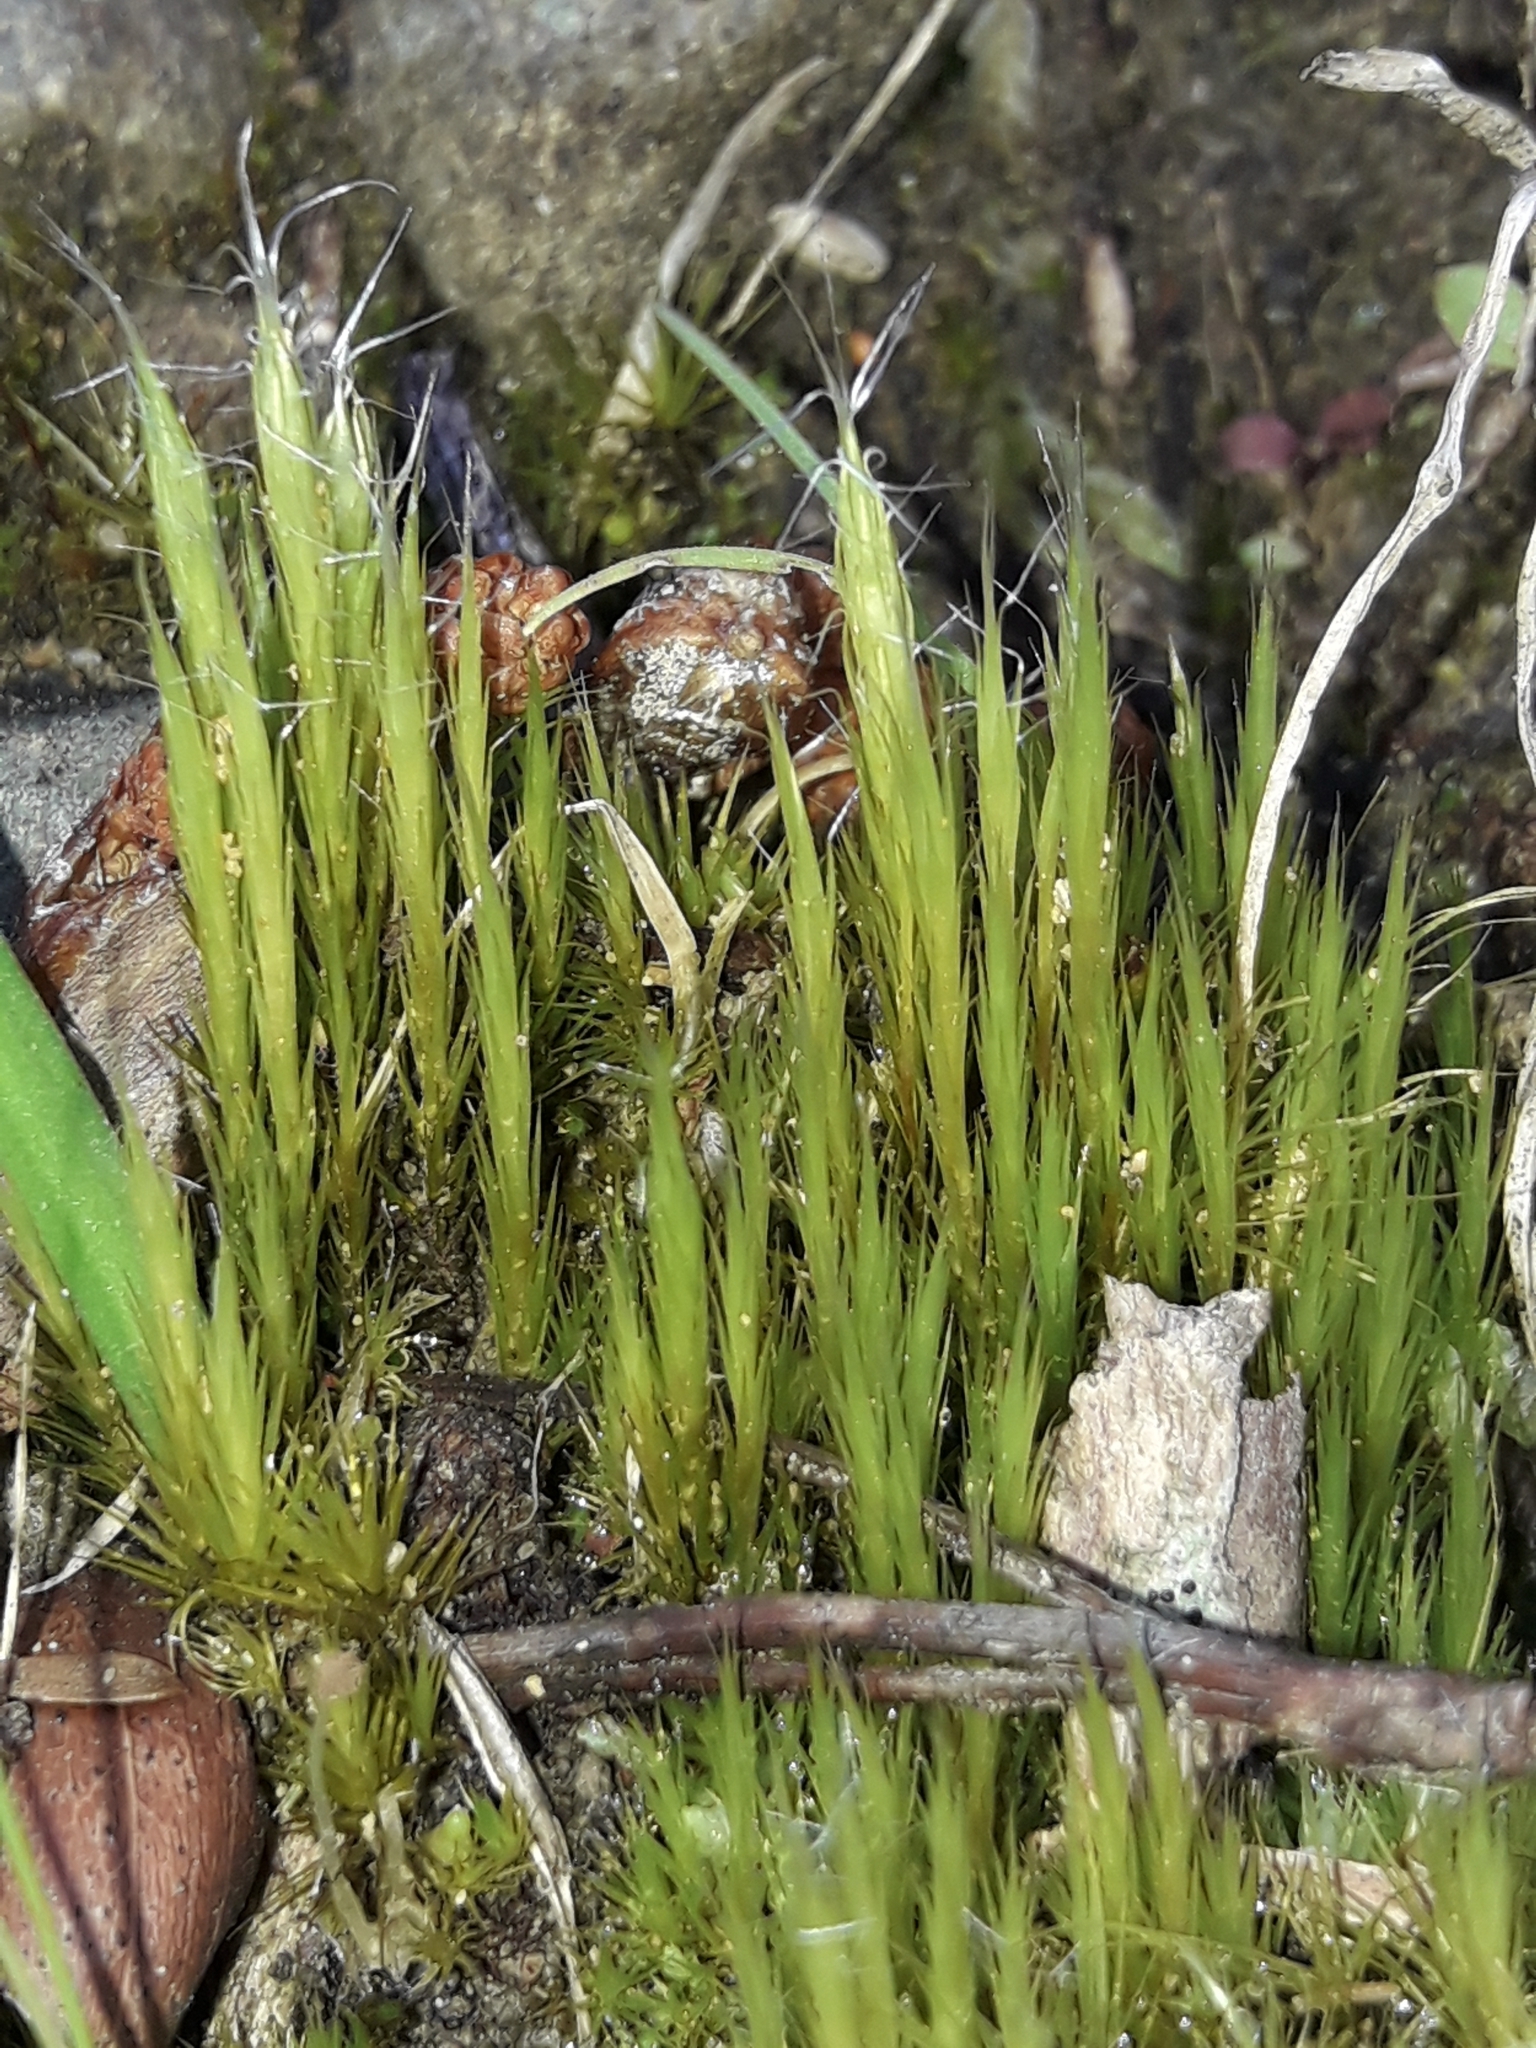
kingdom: Plantae
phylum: Bryophyta
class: Bryopsida
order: Dicranales
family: Leucobryaceae
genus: Campylopus
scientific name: Campylopus introflexus
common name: Heath star moss
